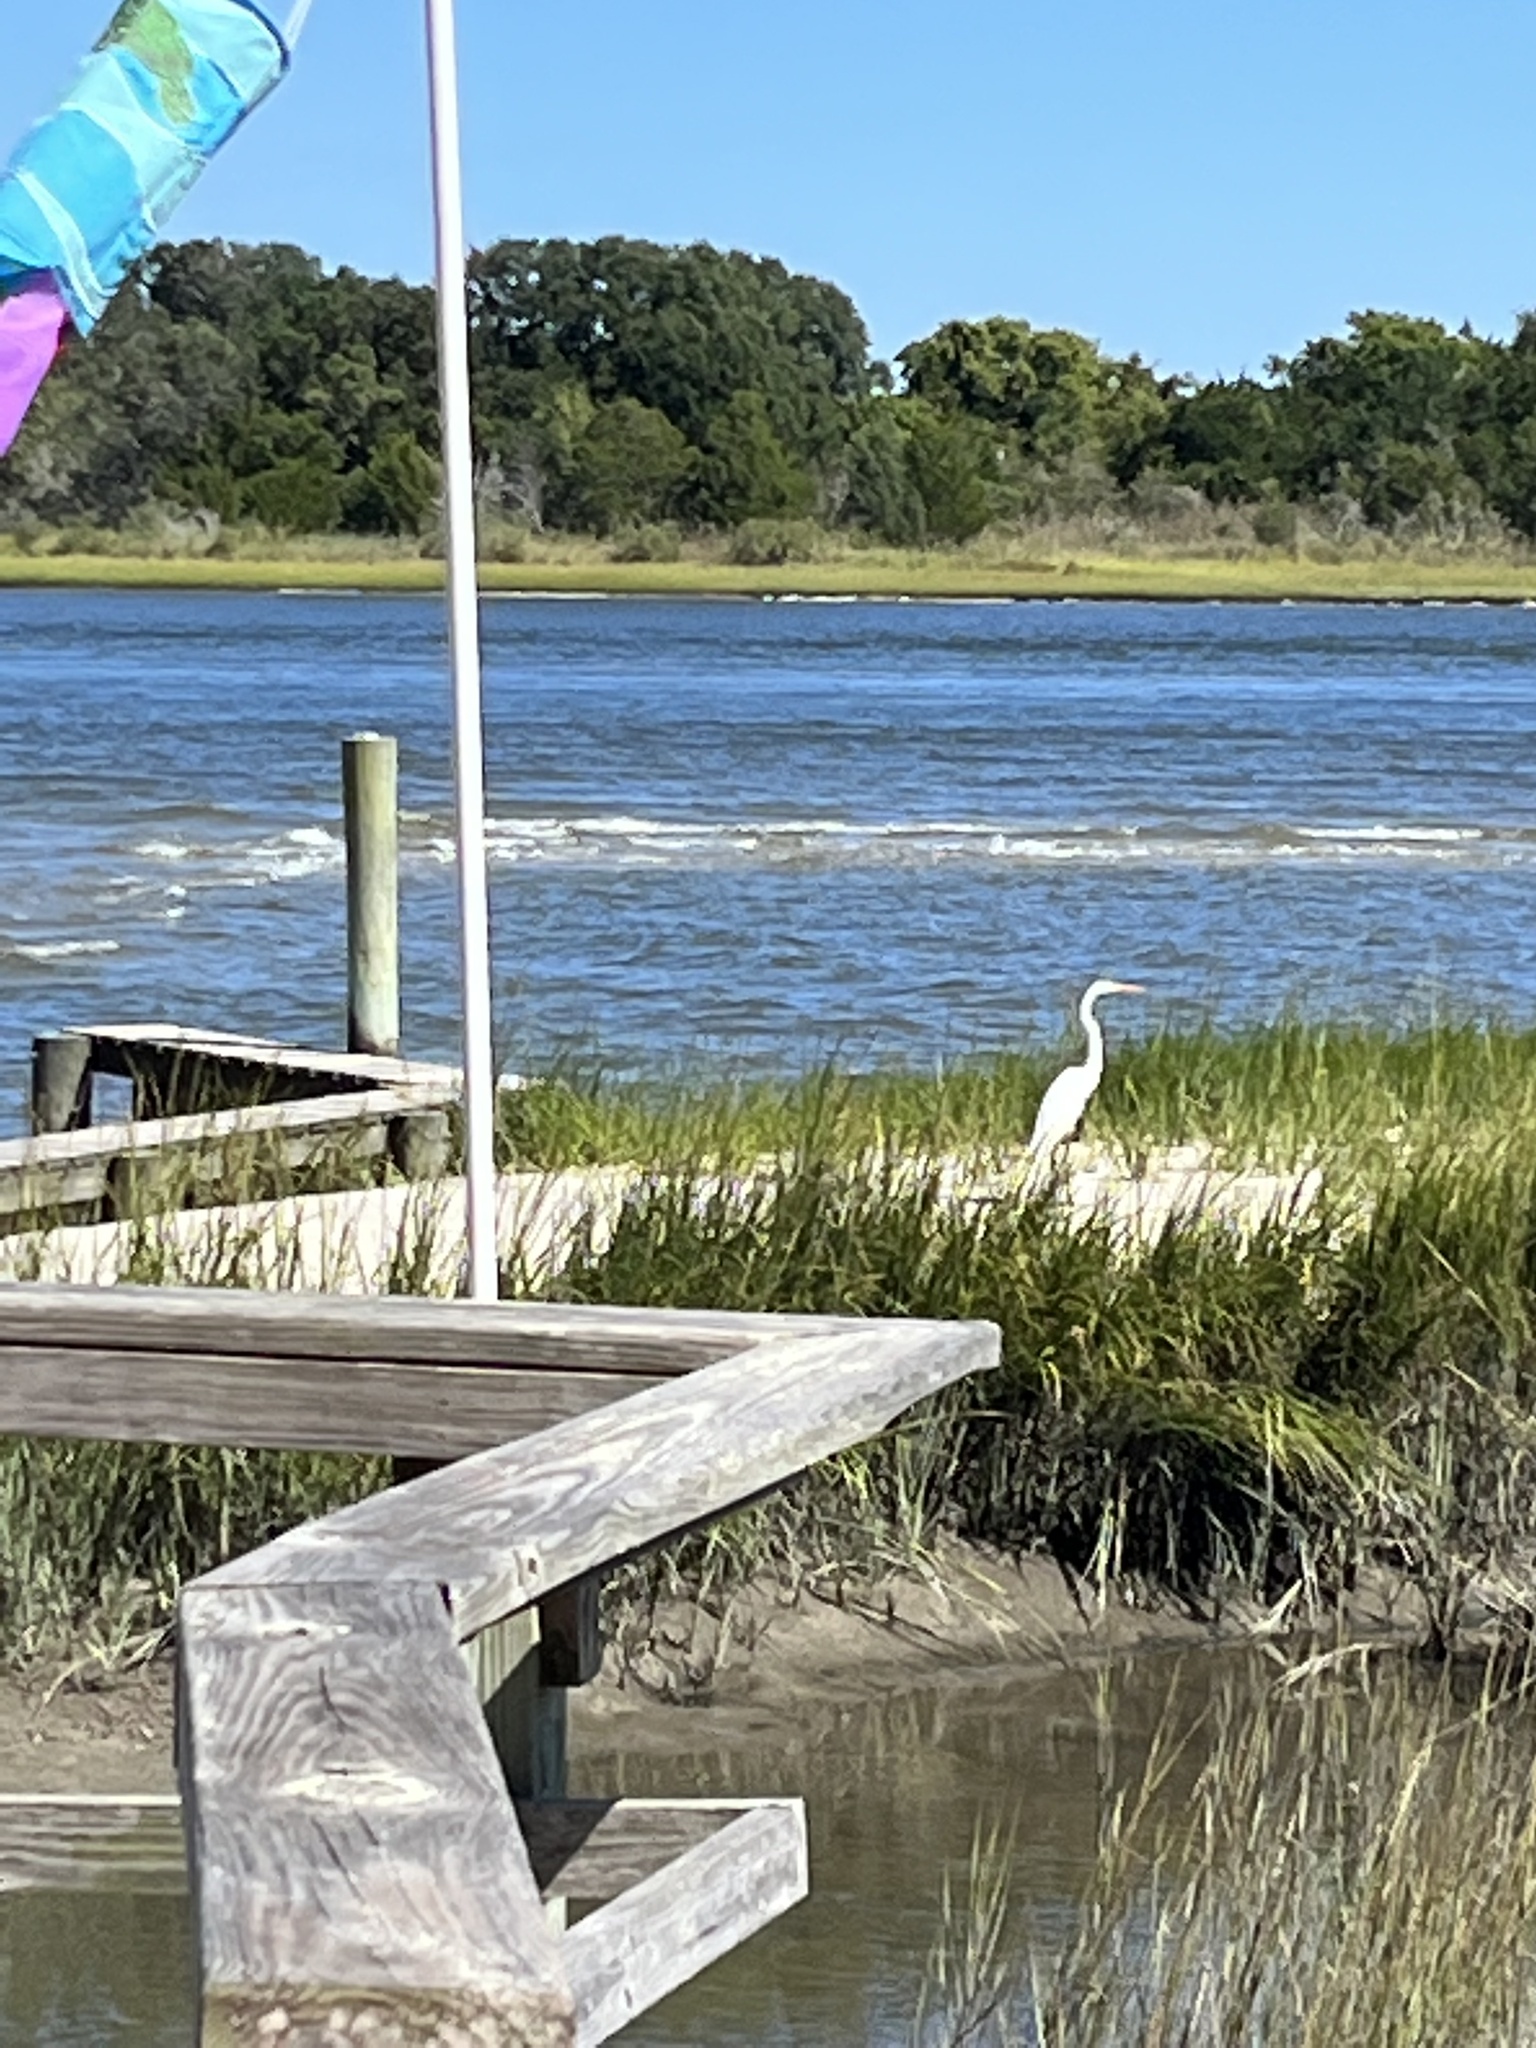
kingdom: Animalia
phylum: Chordata
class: Aves
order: Pelecaniformes
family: Ardeidae
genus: Ardea
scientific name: Ardea alba
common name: Great egret
